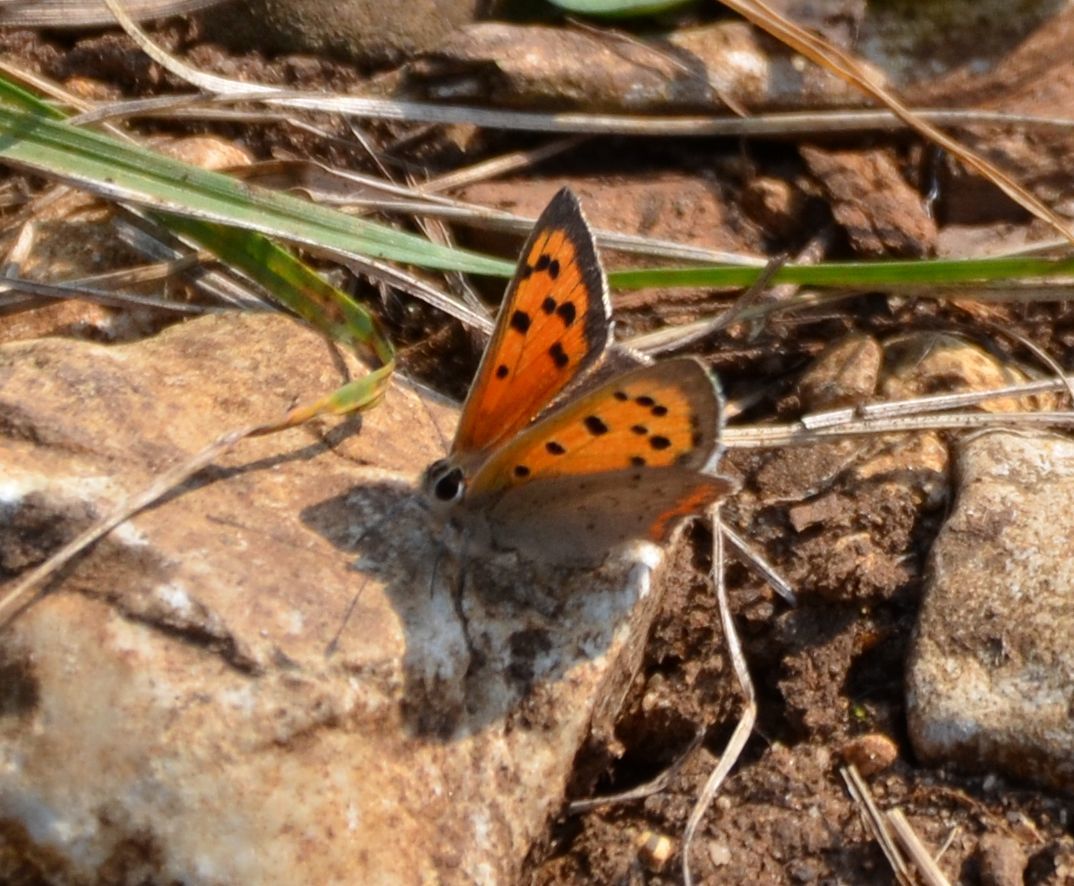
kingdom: Animalia
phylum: Arthropoda
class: Insecta
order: Lepidoptera
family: Lycaenidae
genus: Lycaena
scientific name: Lycaena phlaeas
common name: Small copper
